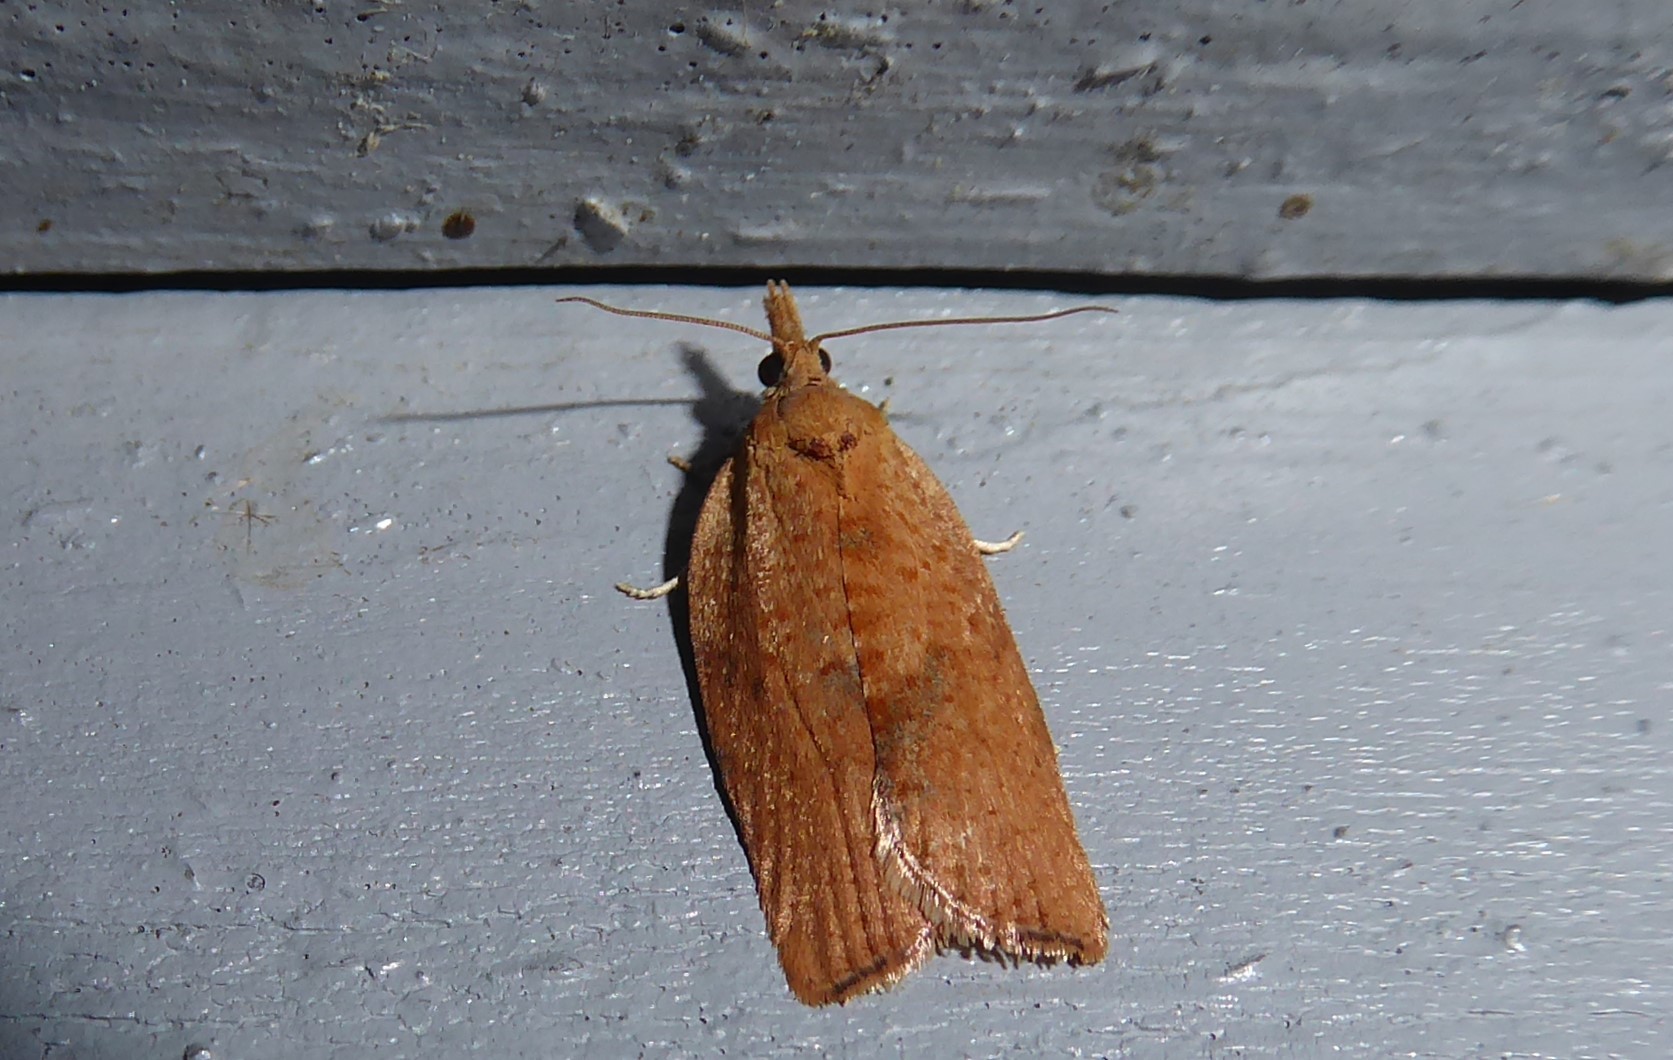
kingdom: Animalia
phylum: Arthropoda
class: Insecta
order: Lepidoptera
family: Tortricidae
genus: Epiphyas
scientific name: Epiphyas postvittana
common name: Light brown apple moth
